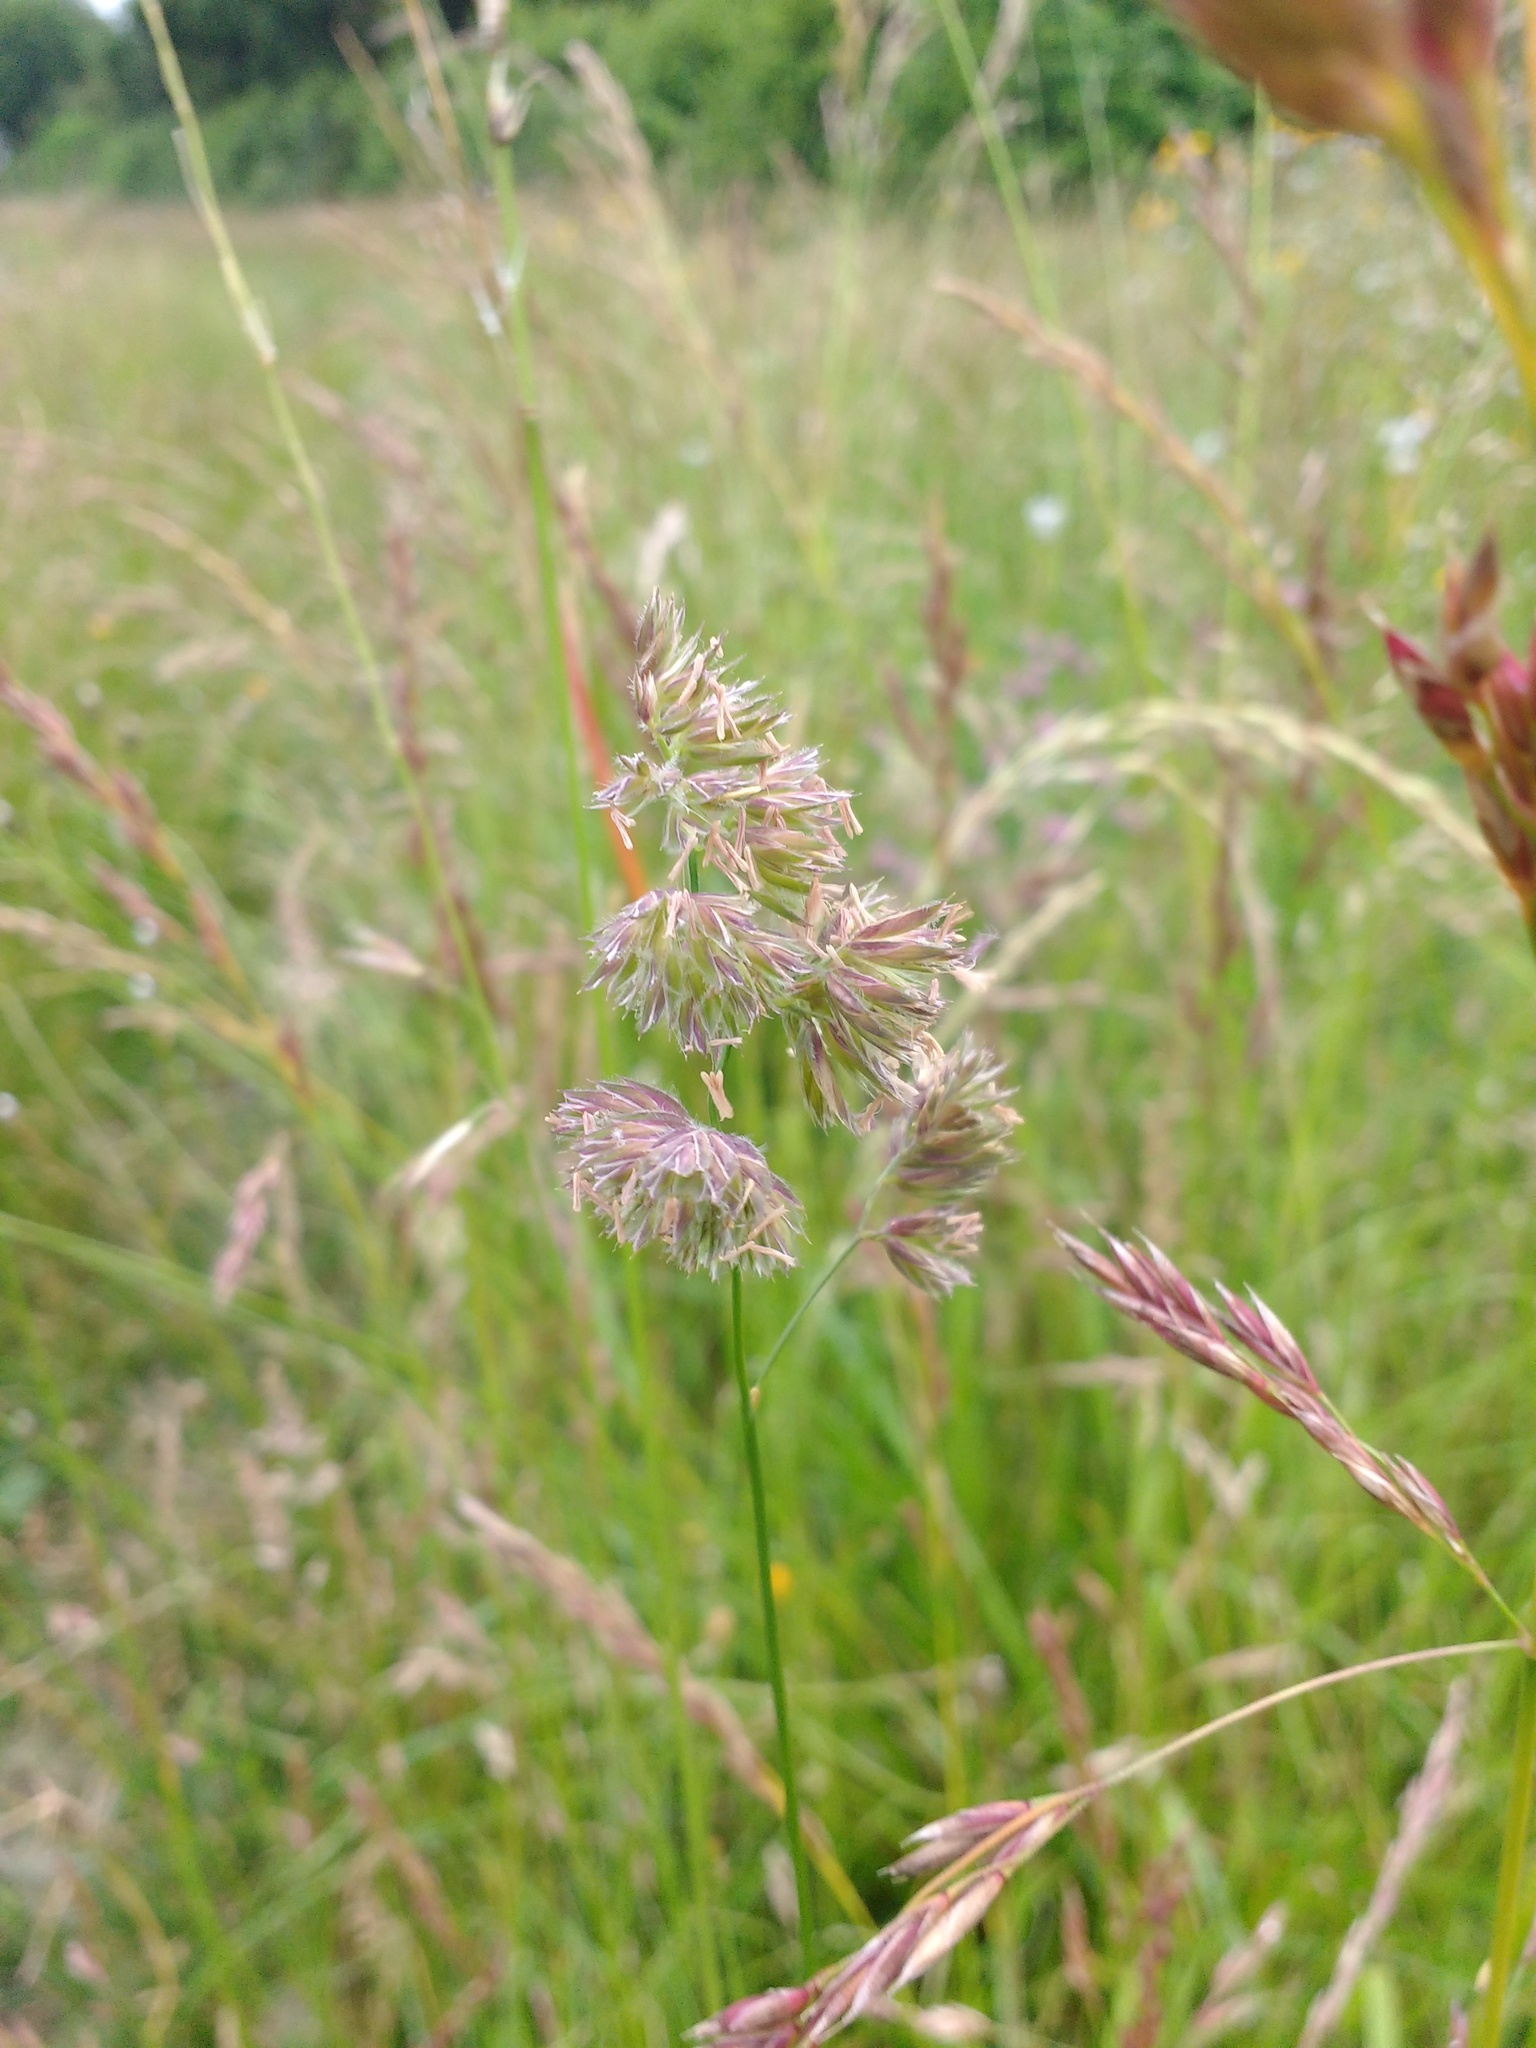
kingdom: Plantae
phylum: Tracheophyta
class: Liliopsida
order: Poales
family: Poaceae
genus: Dactylis
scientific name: Dactylis glomerata
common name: Orchardgrass
